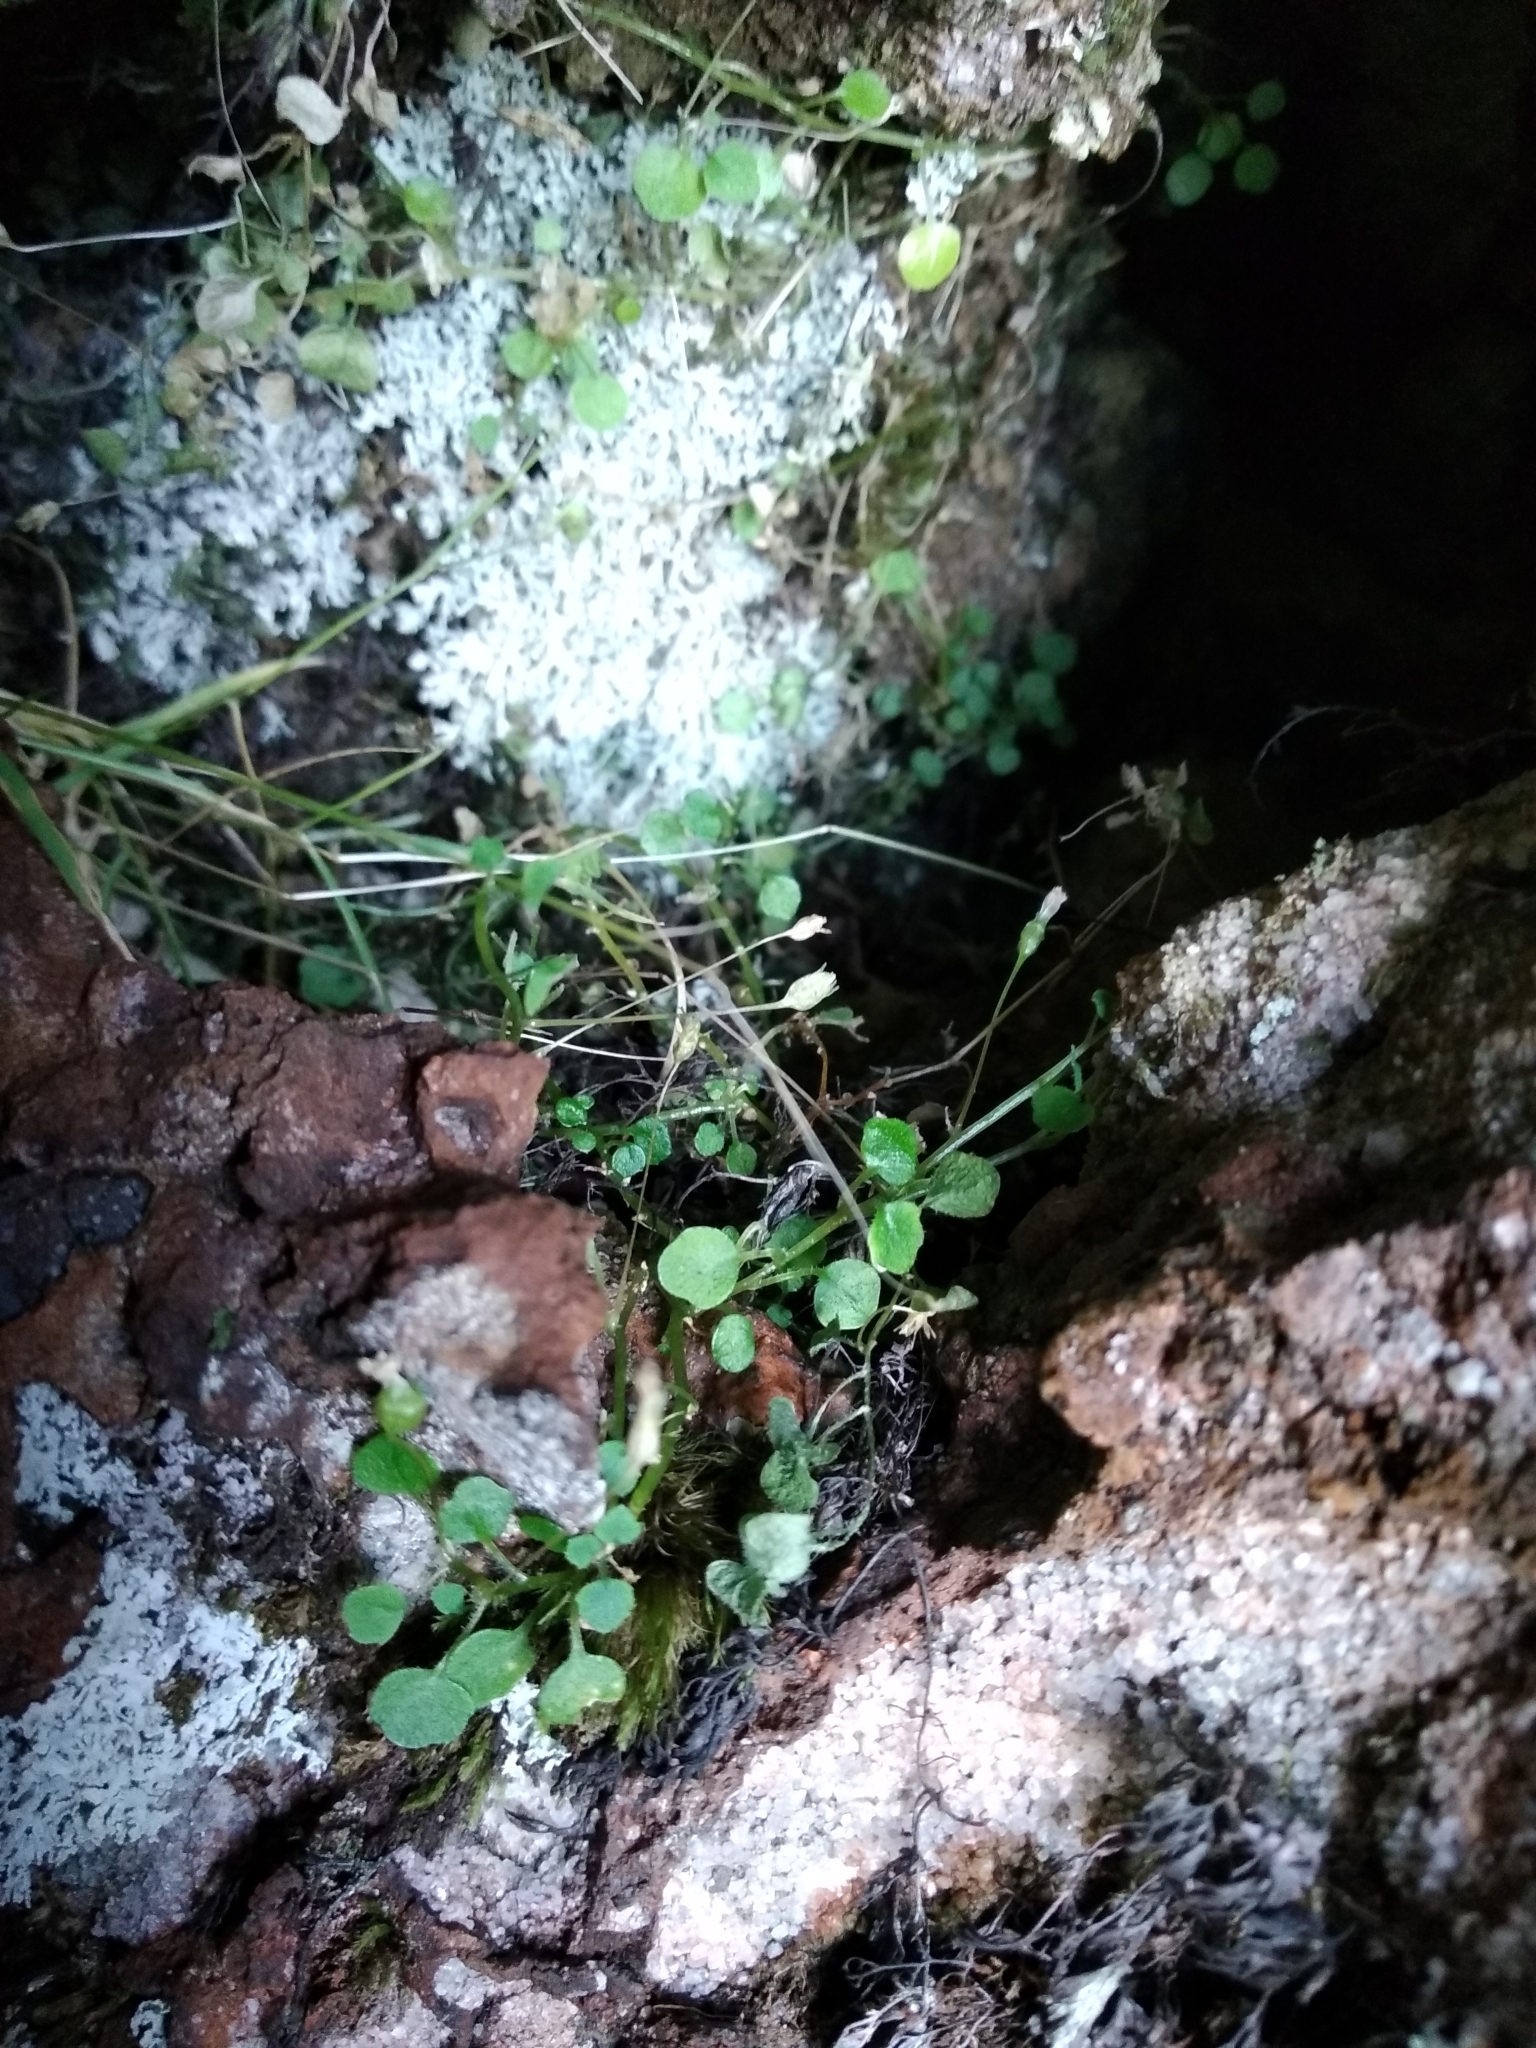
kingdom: Plantae
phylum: Tracheophyta
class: Magnoliopsida
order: Asterales
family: Campanulaceae
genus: Wimmerella
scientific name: Wimmerella pygmaea
